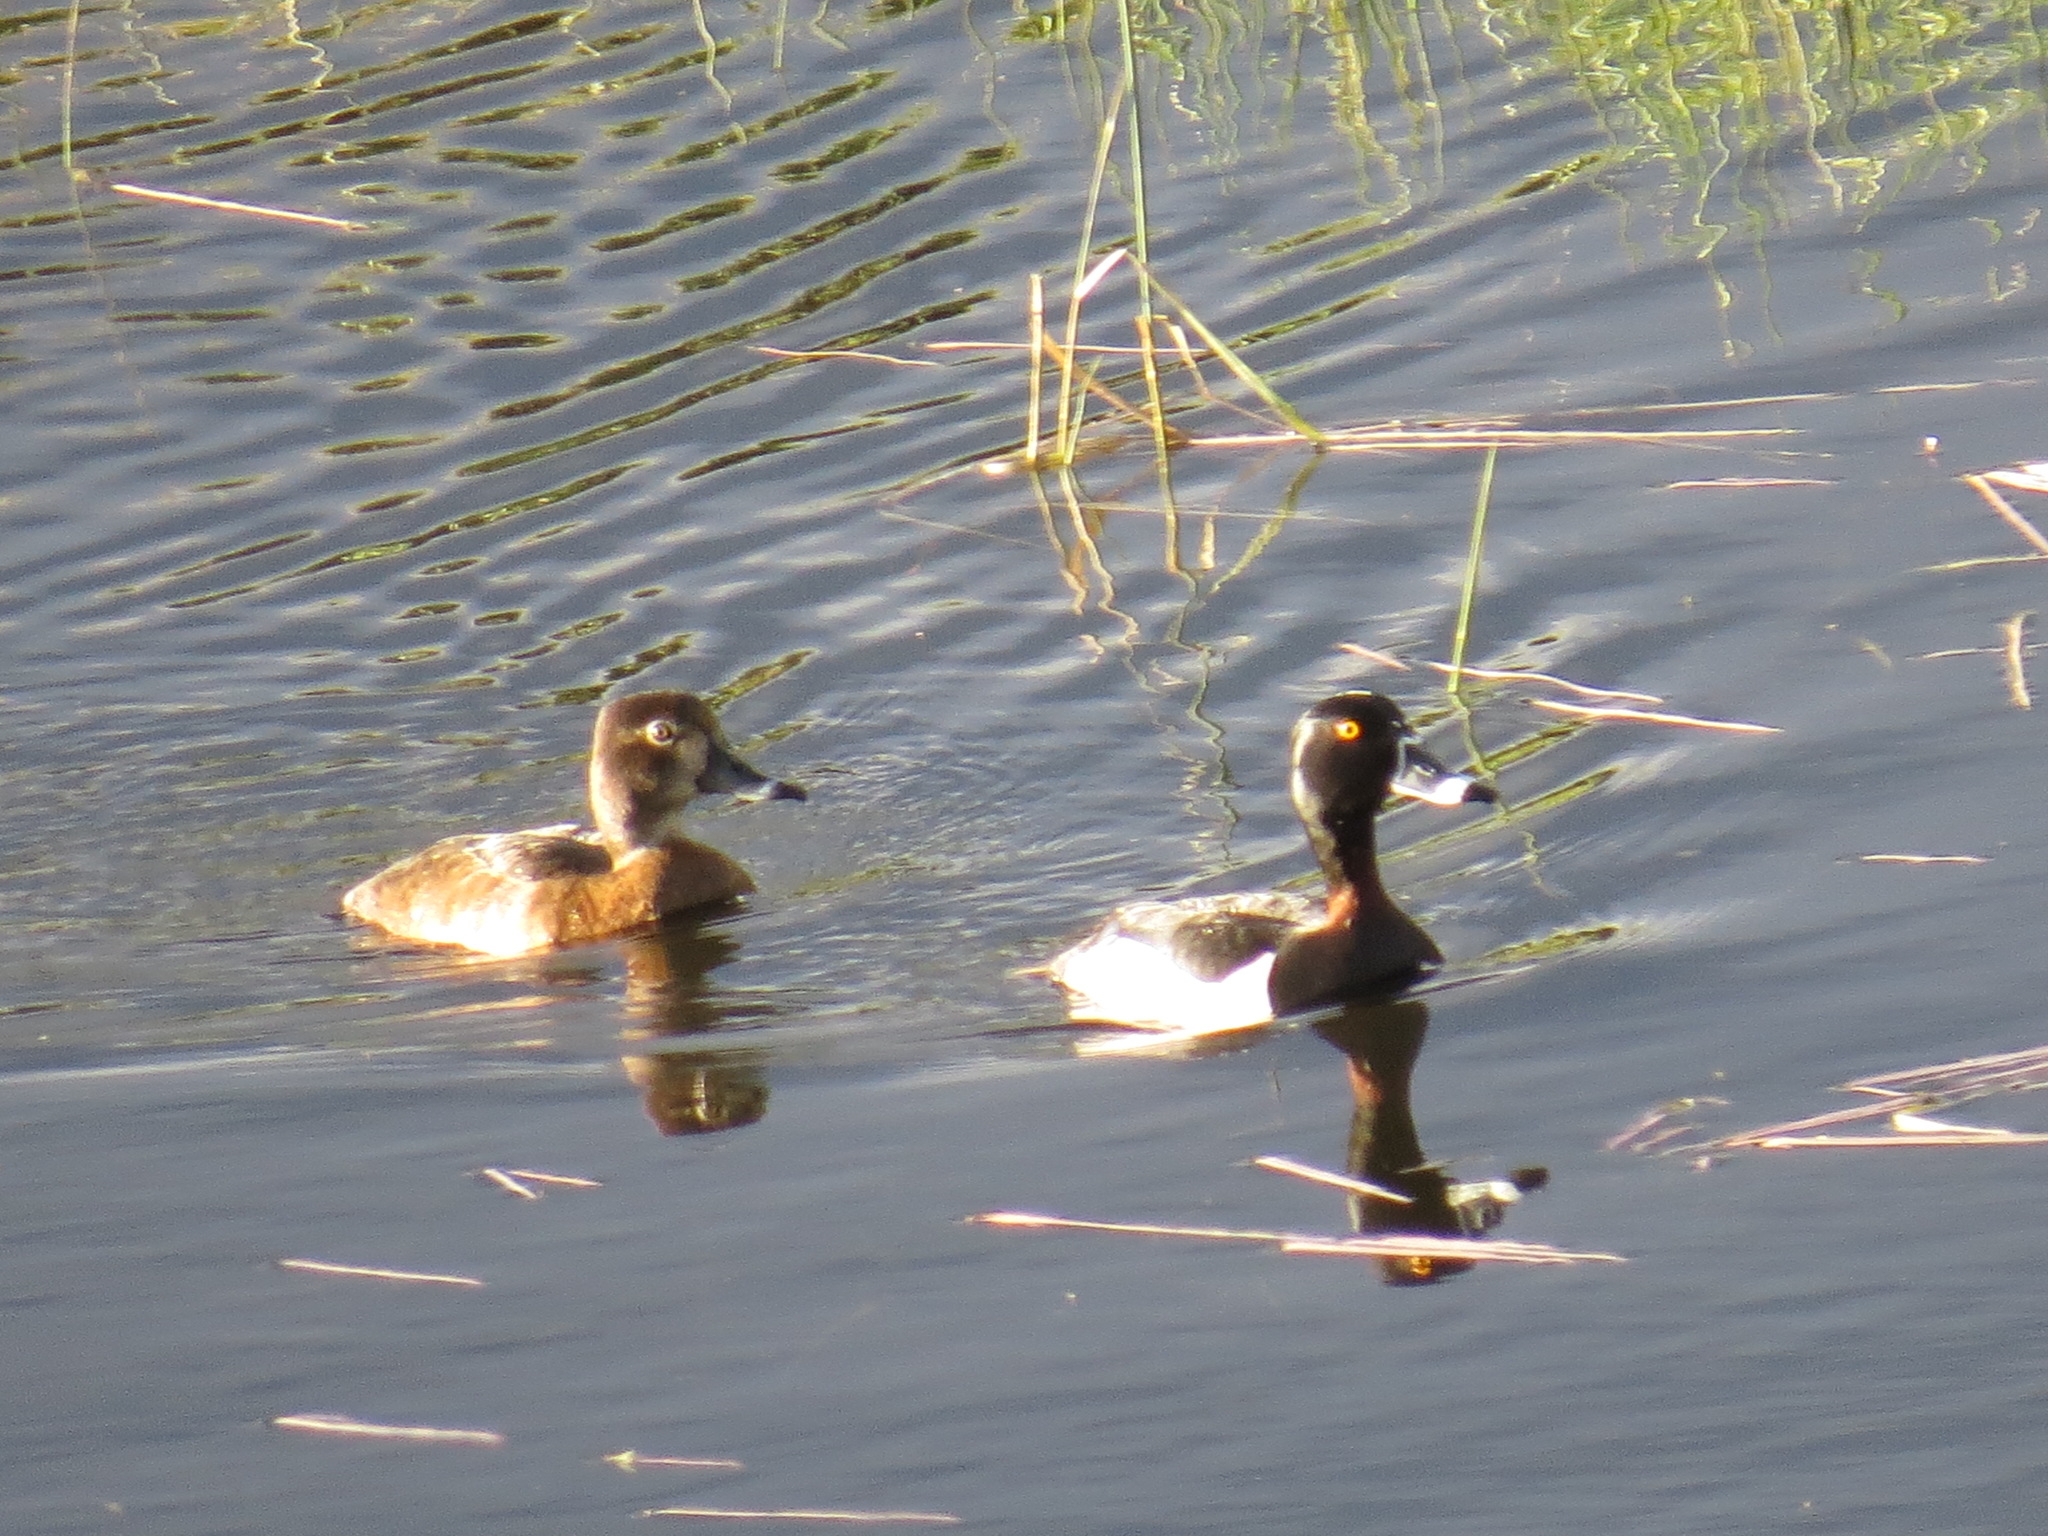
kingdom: Animalia
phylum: Chordata
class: Aves
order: Anseriformes
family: Anatidae
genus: Aythya
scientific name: Aythya collaris
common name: Ring-necked duck
